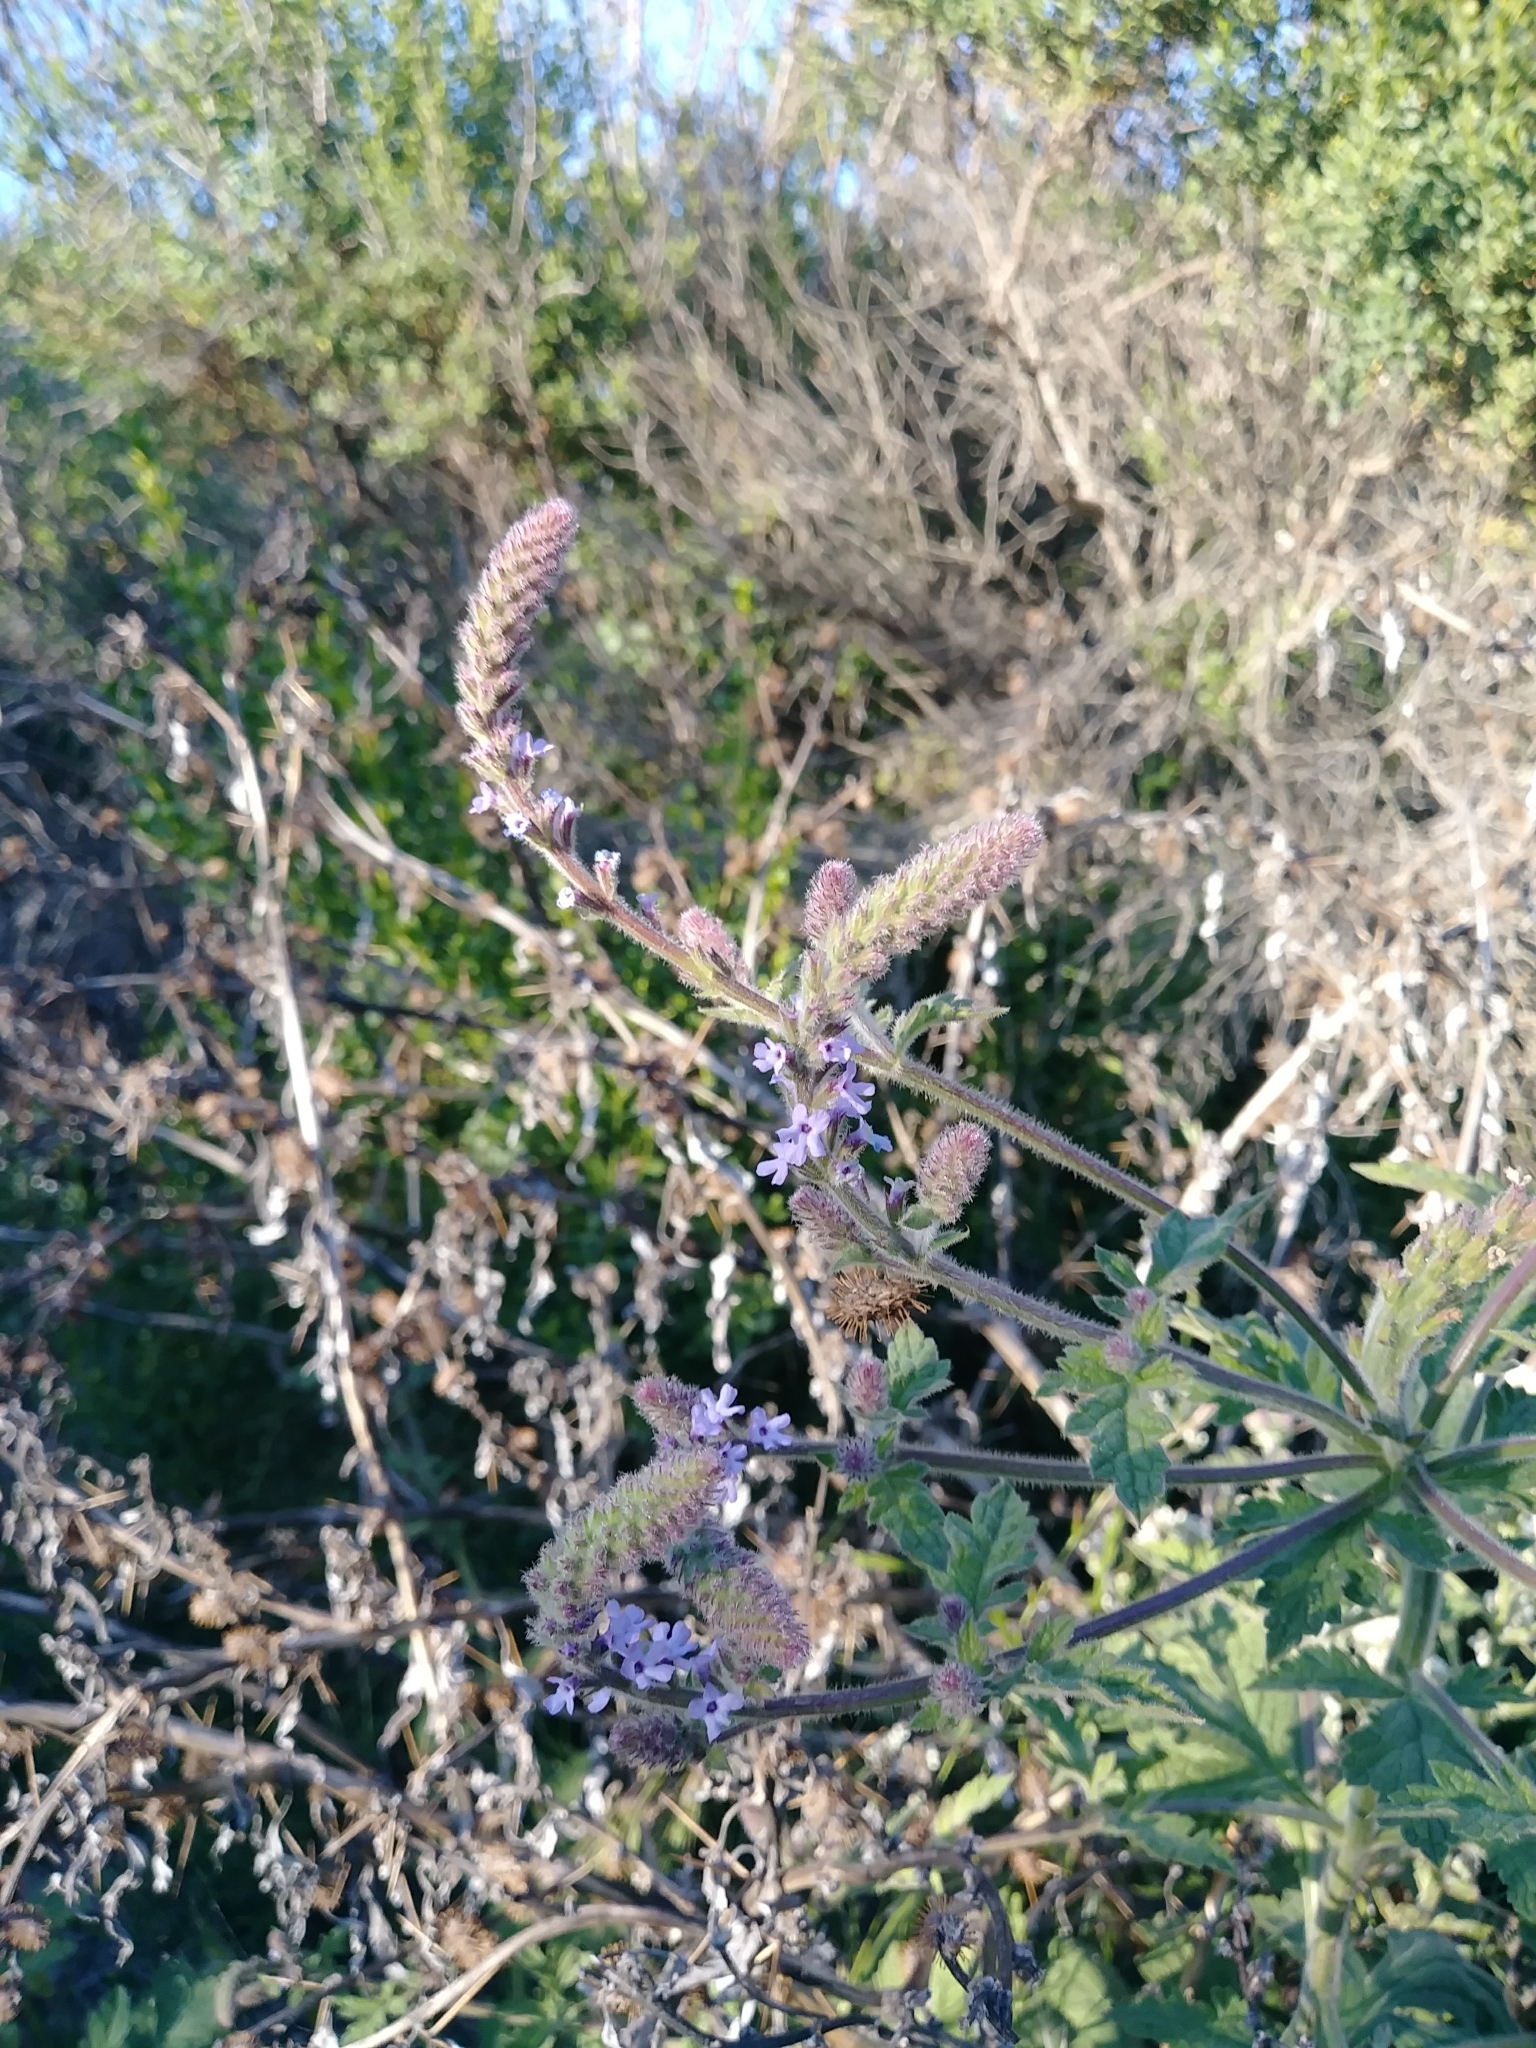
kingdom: Plantae
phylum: Tracheophyta
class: Magnoliopsida
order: Lamiales
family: Verbenaceae
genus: Verbena
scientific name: Verbena lasiostachys
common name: Vervain
